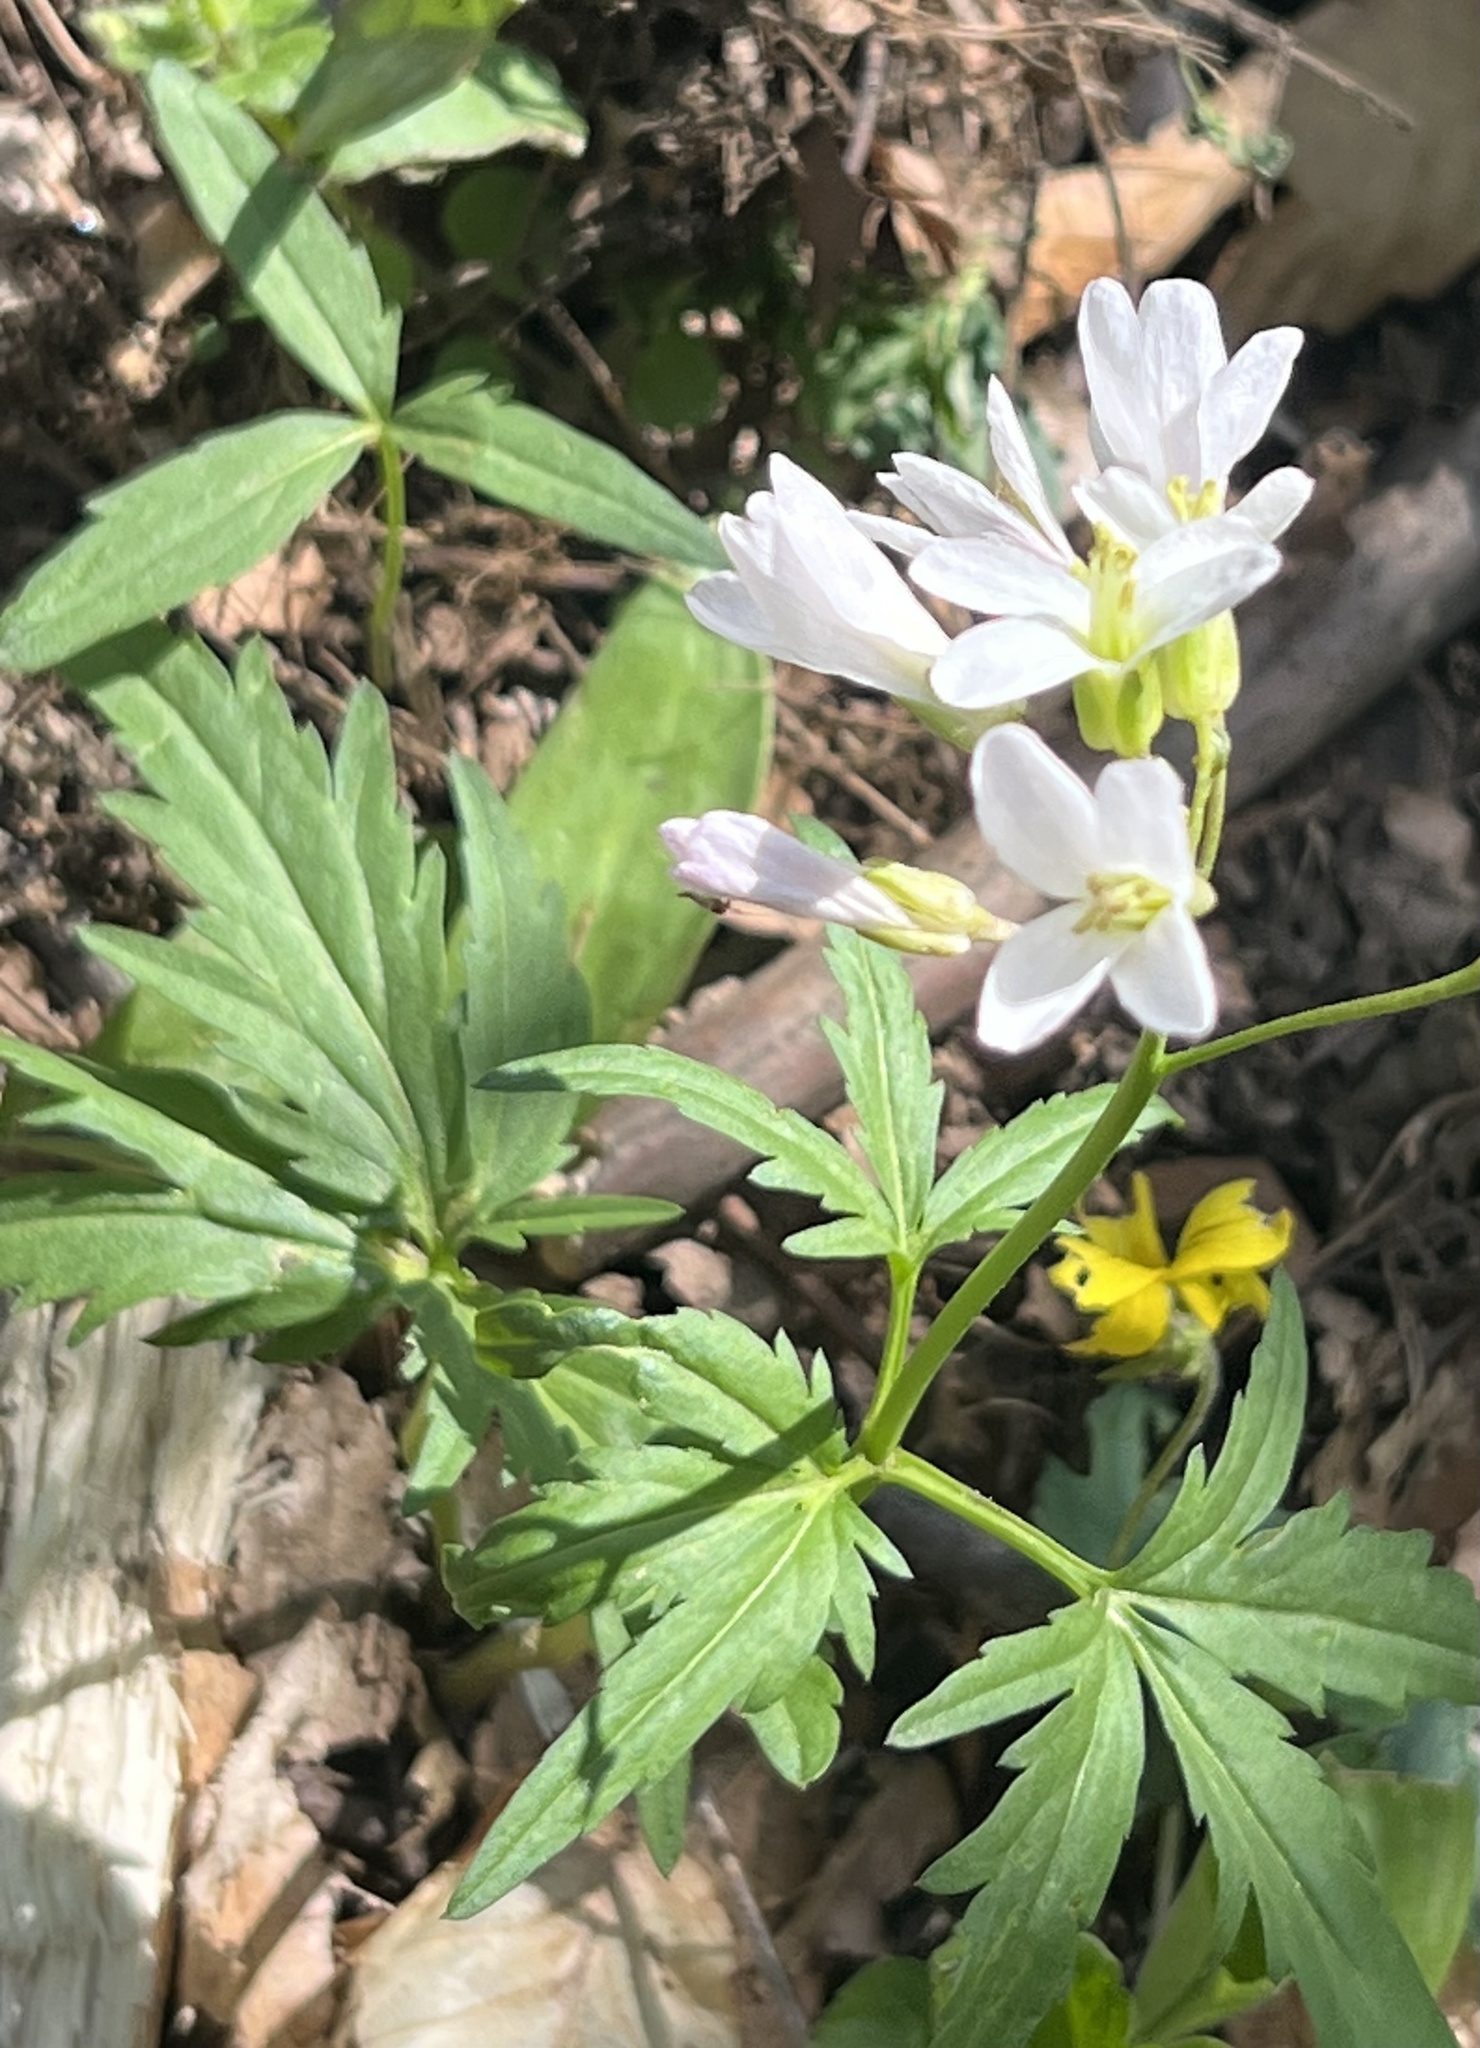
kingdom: Plantae
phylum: Tracheophyta
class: Magnoliopsida
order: Brassicales
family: Brassicaceae
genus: Cardamine
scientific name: Cardamine concatenata
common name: Cut-leaf toothcup
